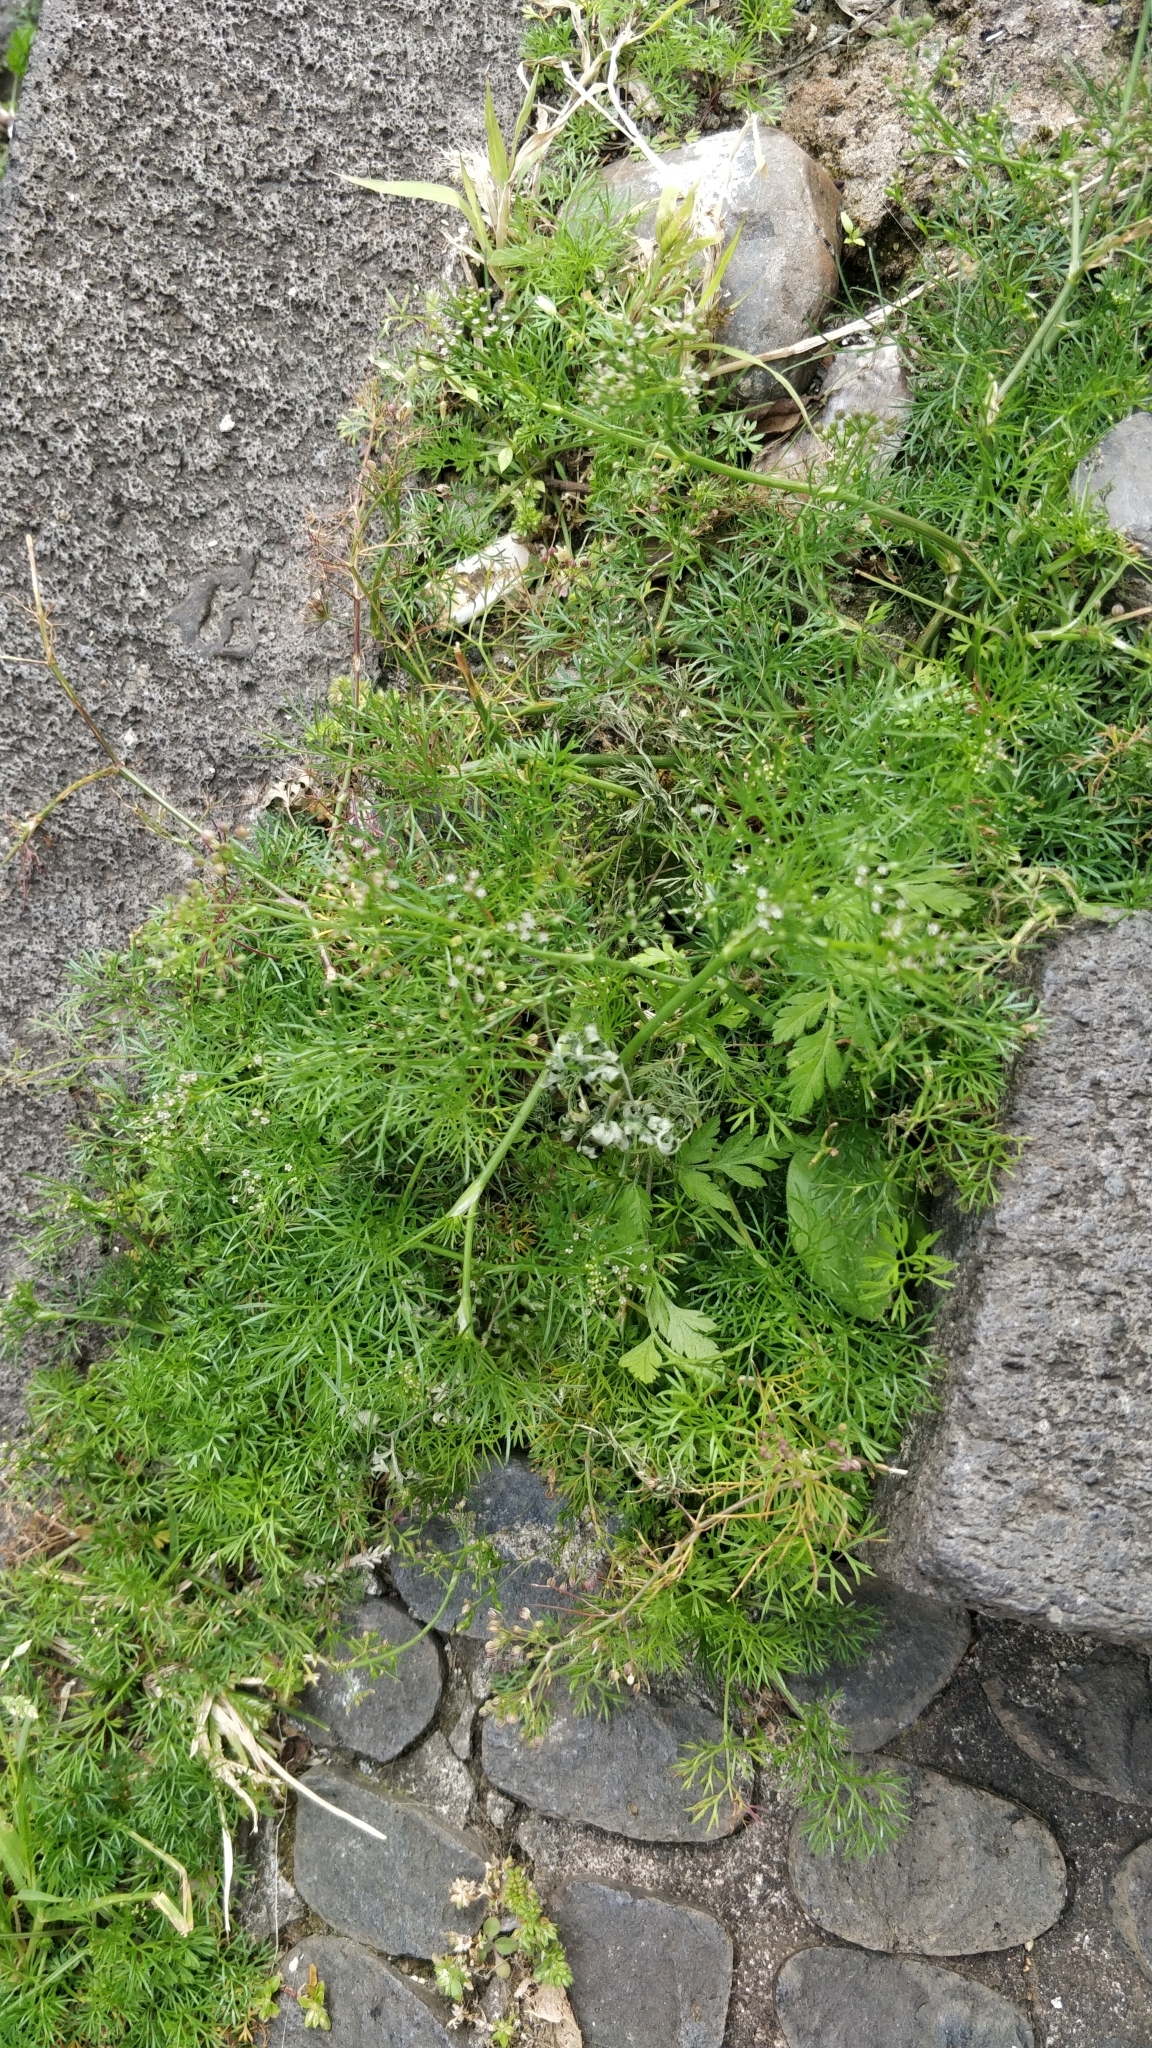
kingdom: Plantae
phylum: Tracheophyta
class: Magnoliopsida
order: Apiales
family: Apiaceae
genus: Cyclospermum
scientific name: Cyclospermum leptophyllum
